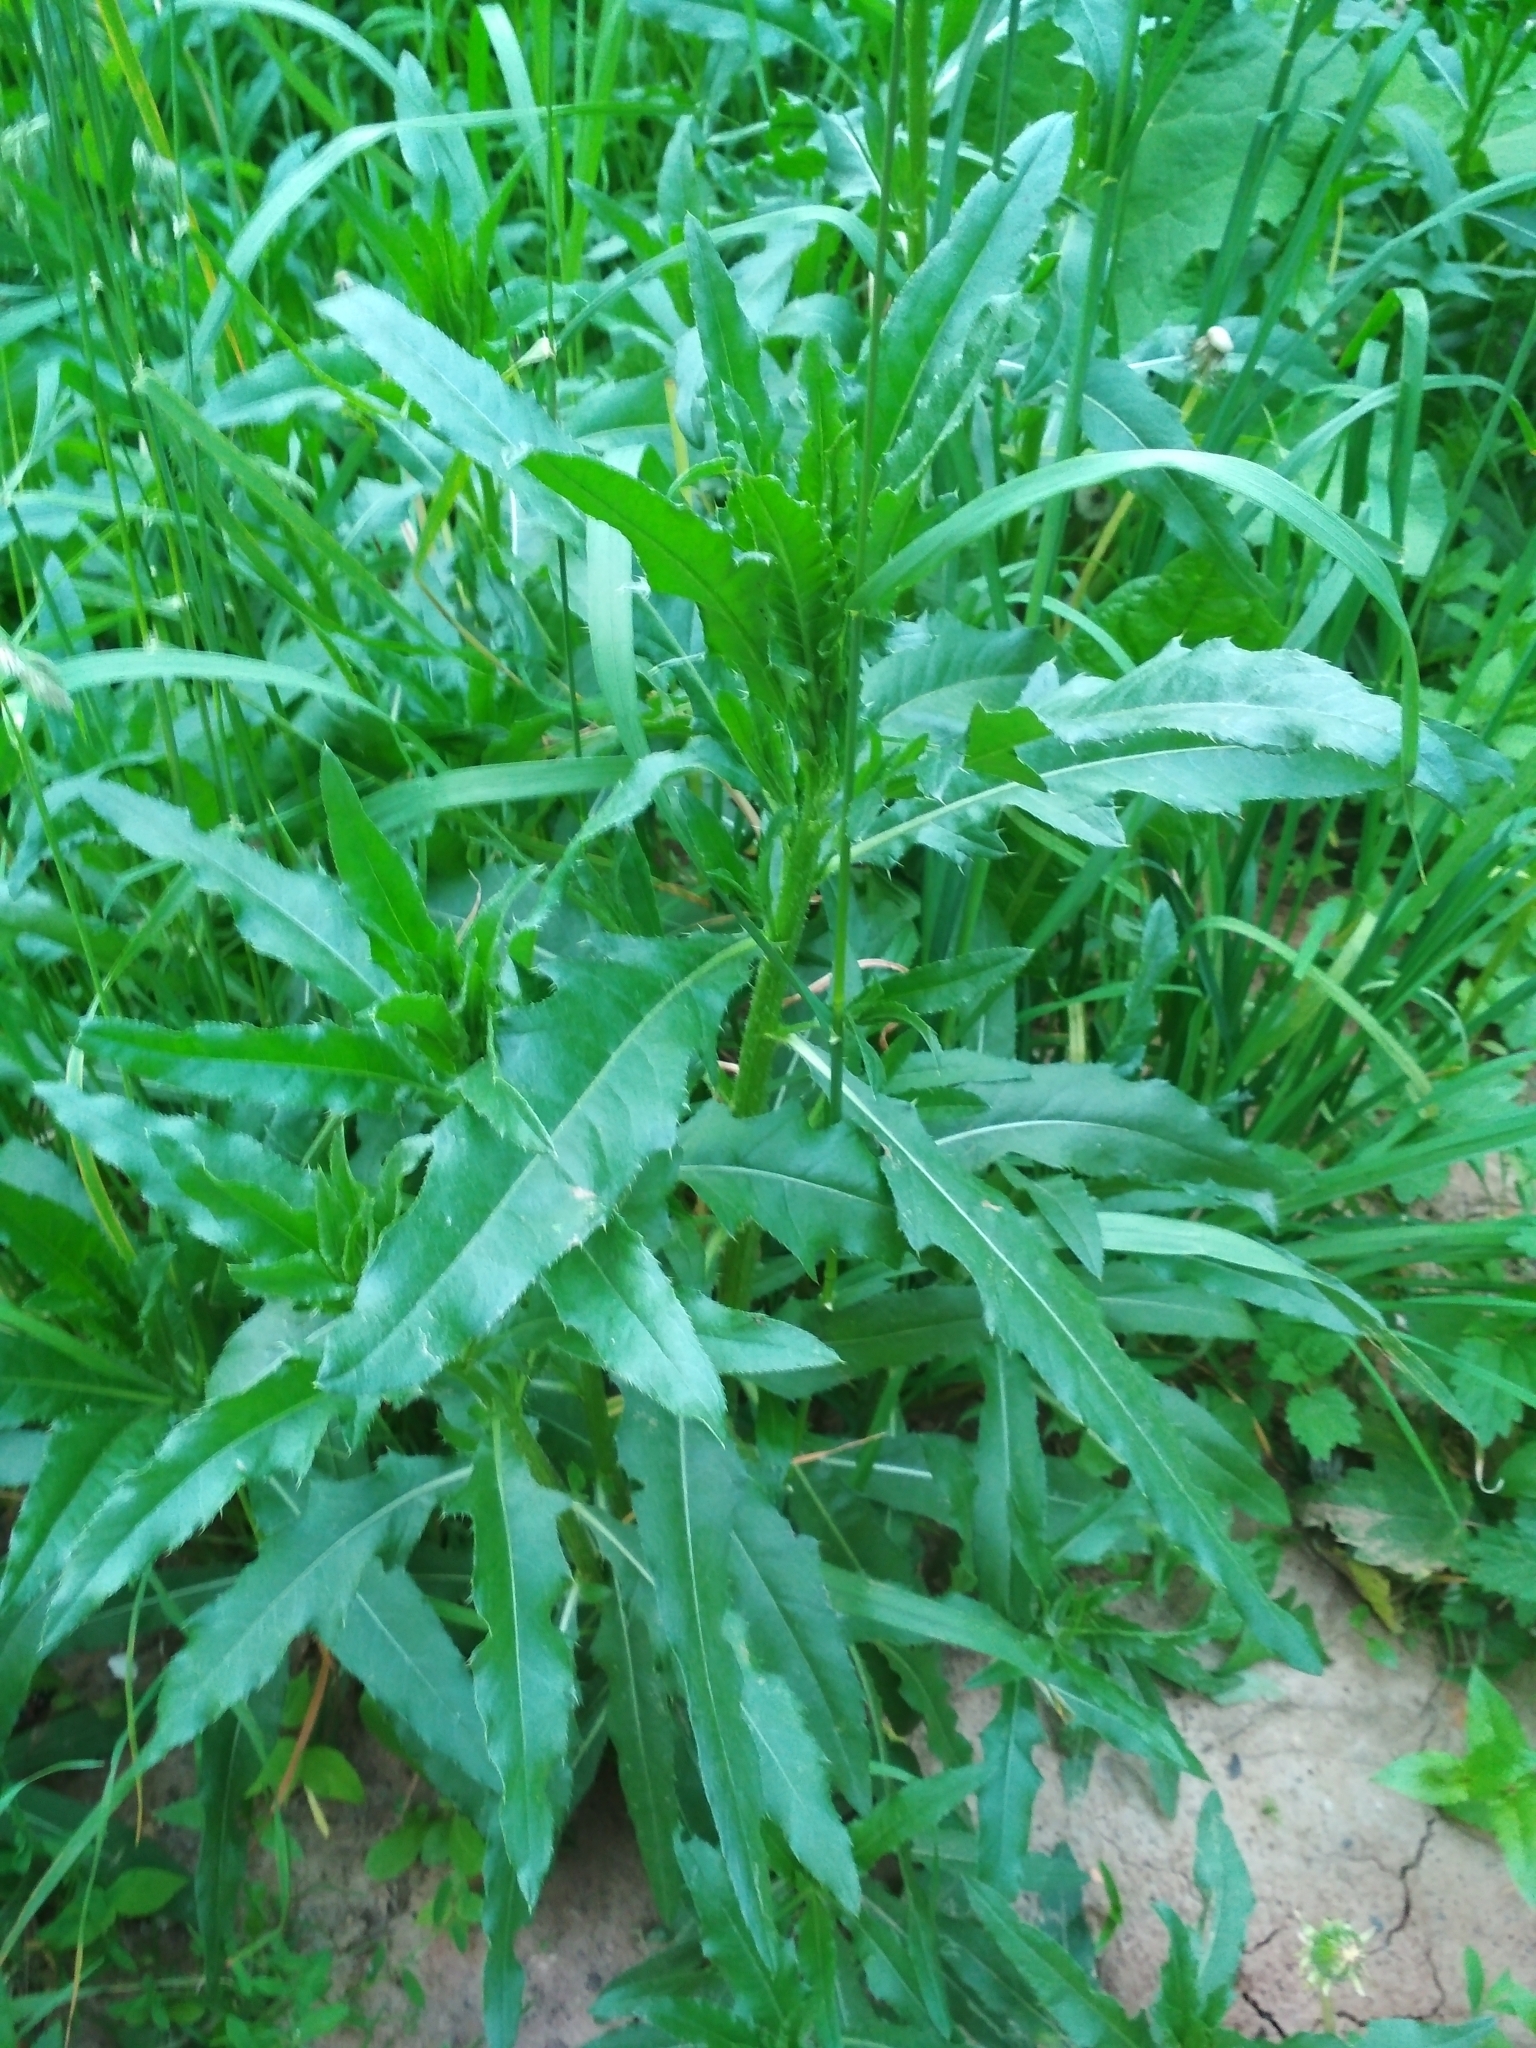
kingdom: Plantae
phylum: Tracheophyta
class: Magnoliopsida
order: Asterales
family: Asteraceae
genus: Cirsium
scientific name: Cirsium arvense
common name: Creeping thistle
